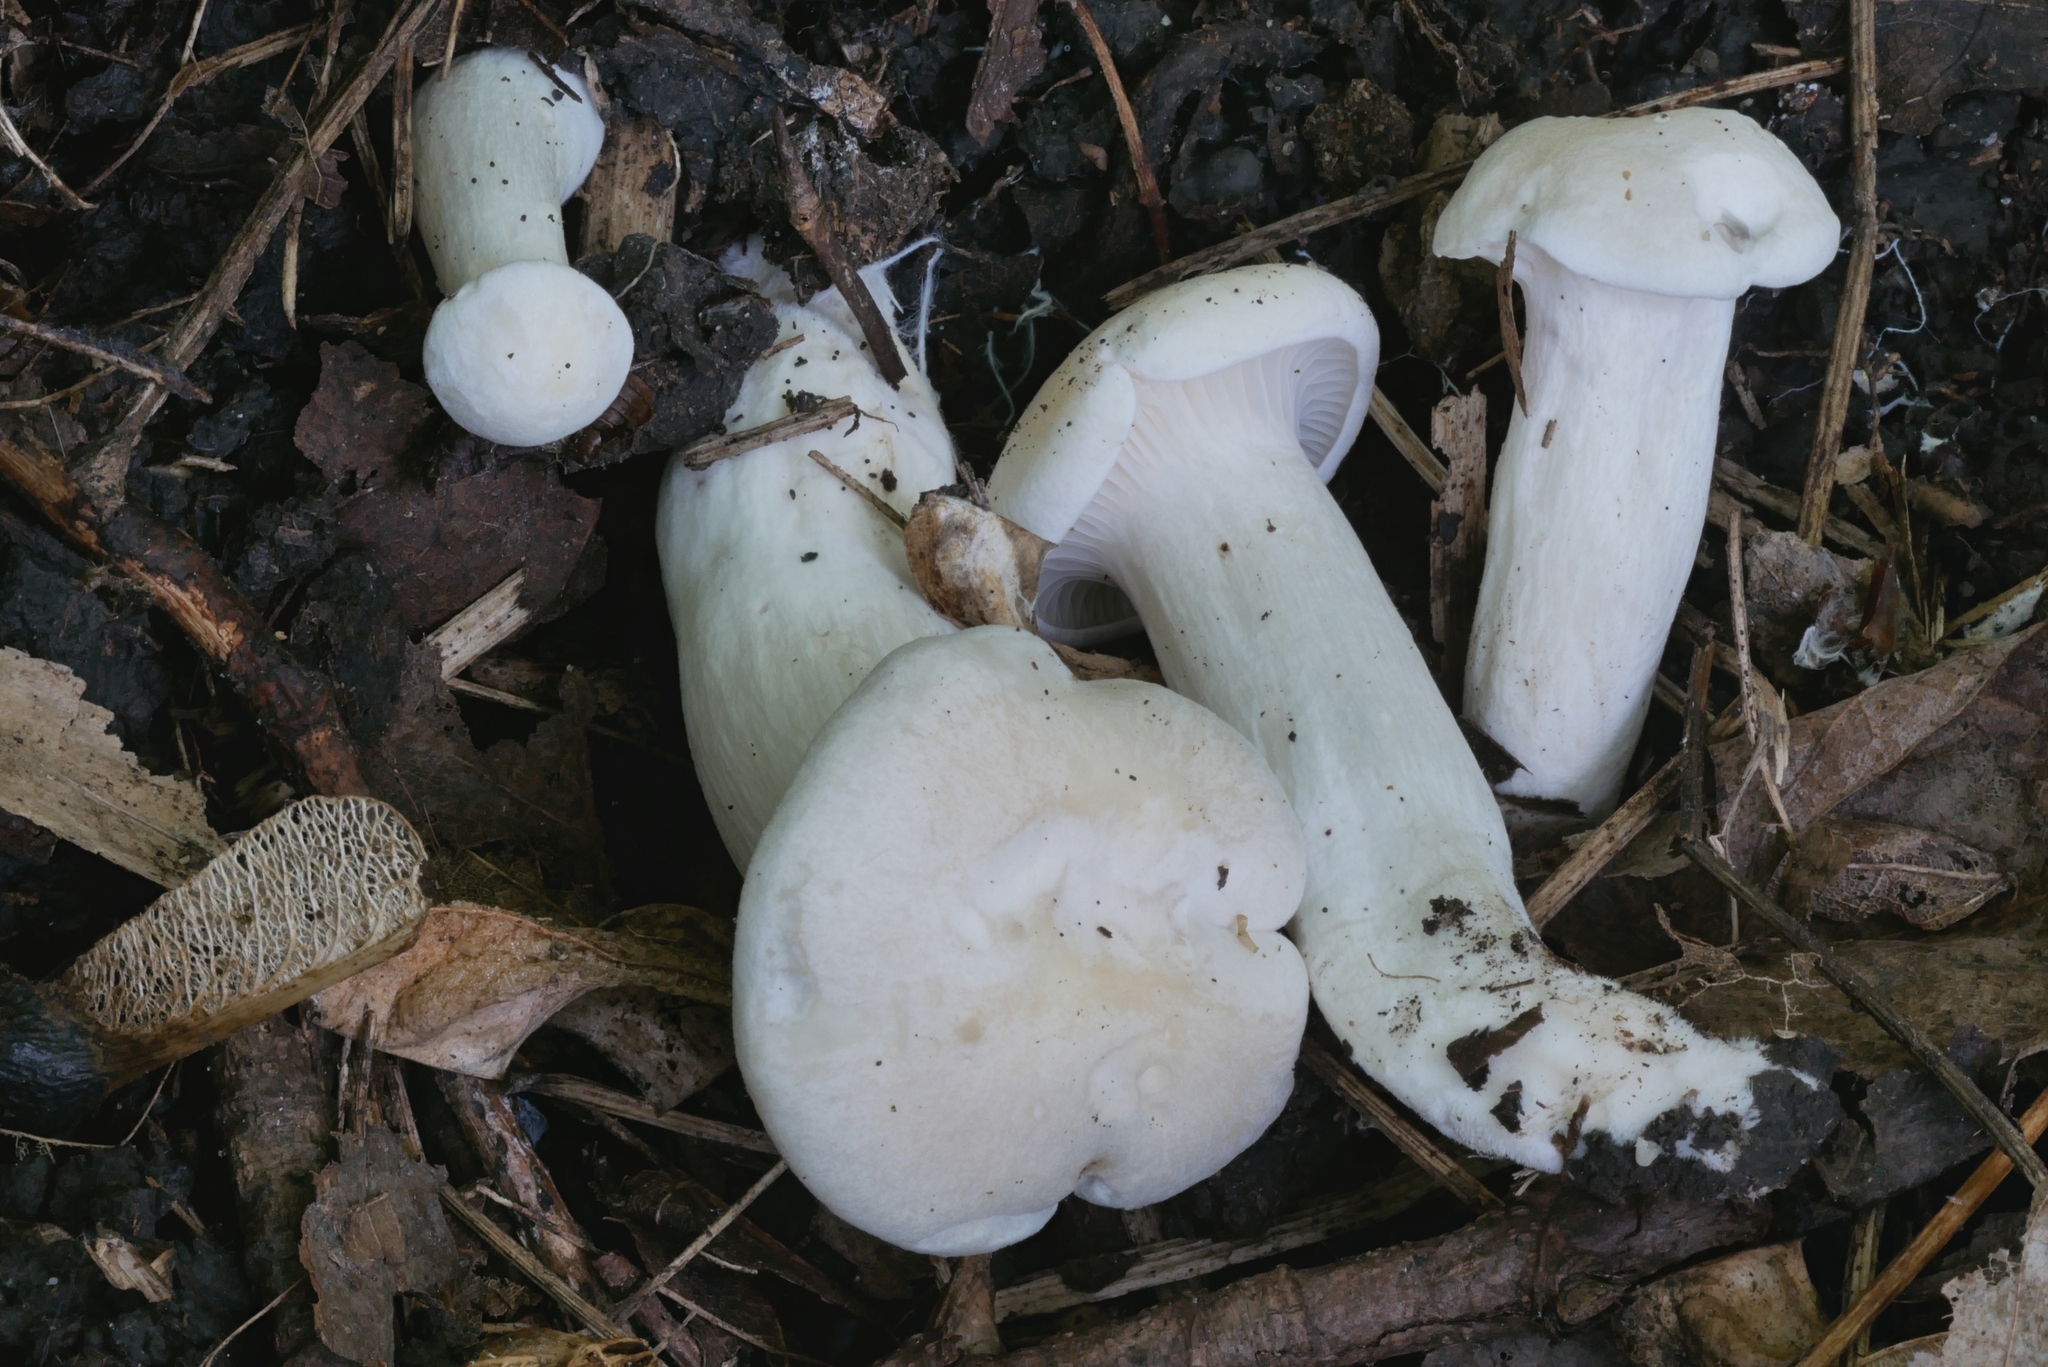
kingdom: Fungi
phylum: Basidiomycota
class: Agaricomycetes
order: Agaricales
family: Hygrophoraceae
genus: Hygrocybe
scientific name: Hygrocybe angustifolia
